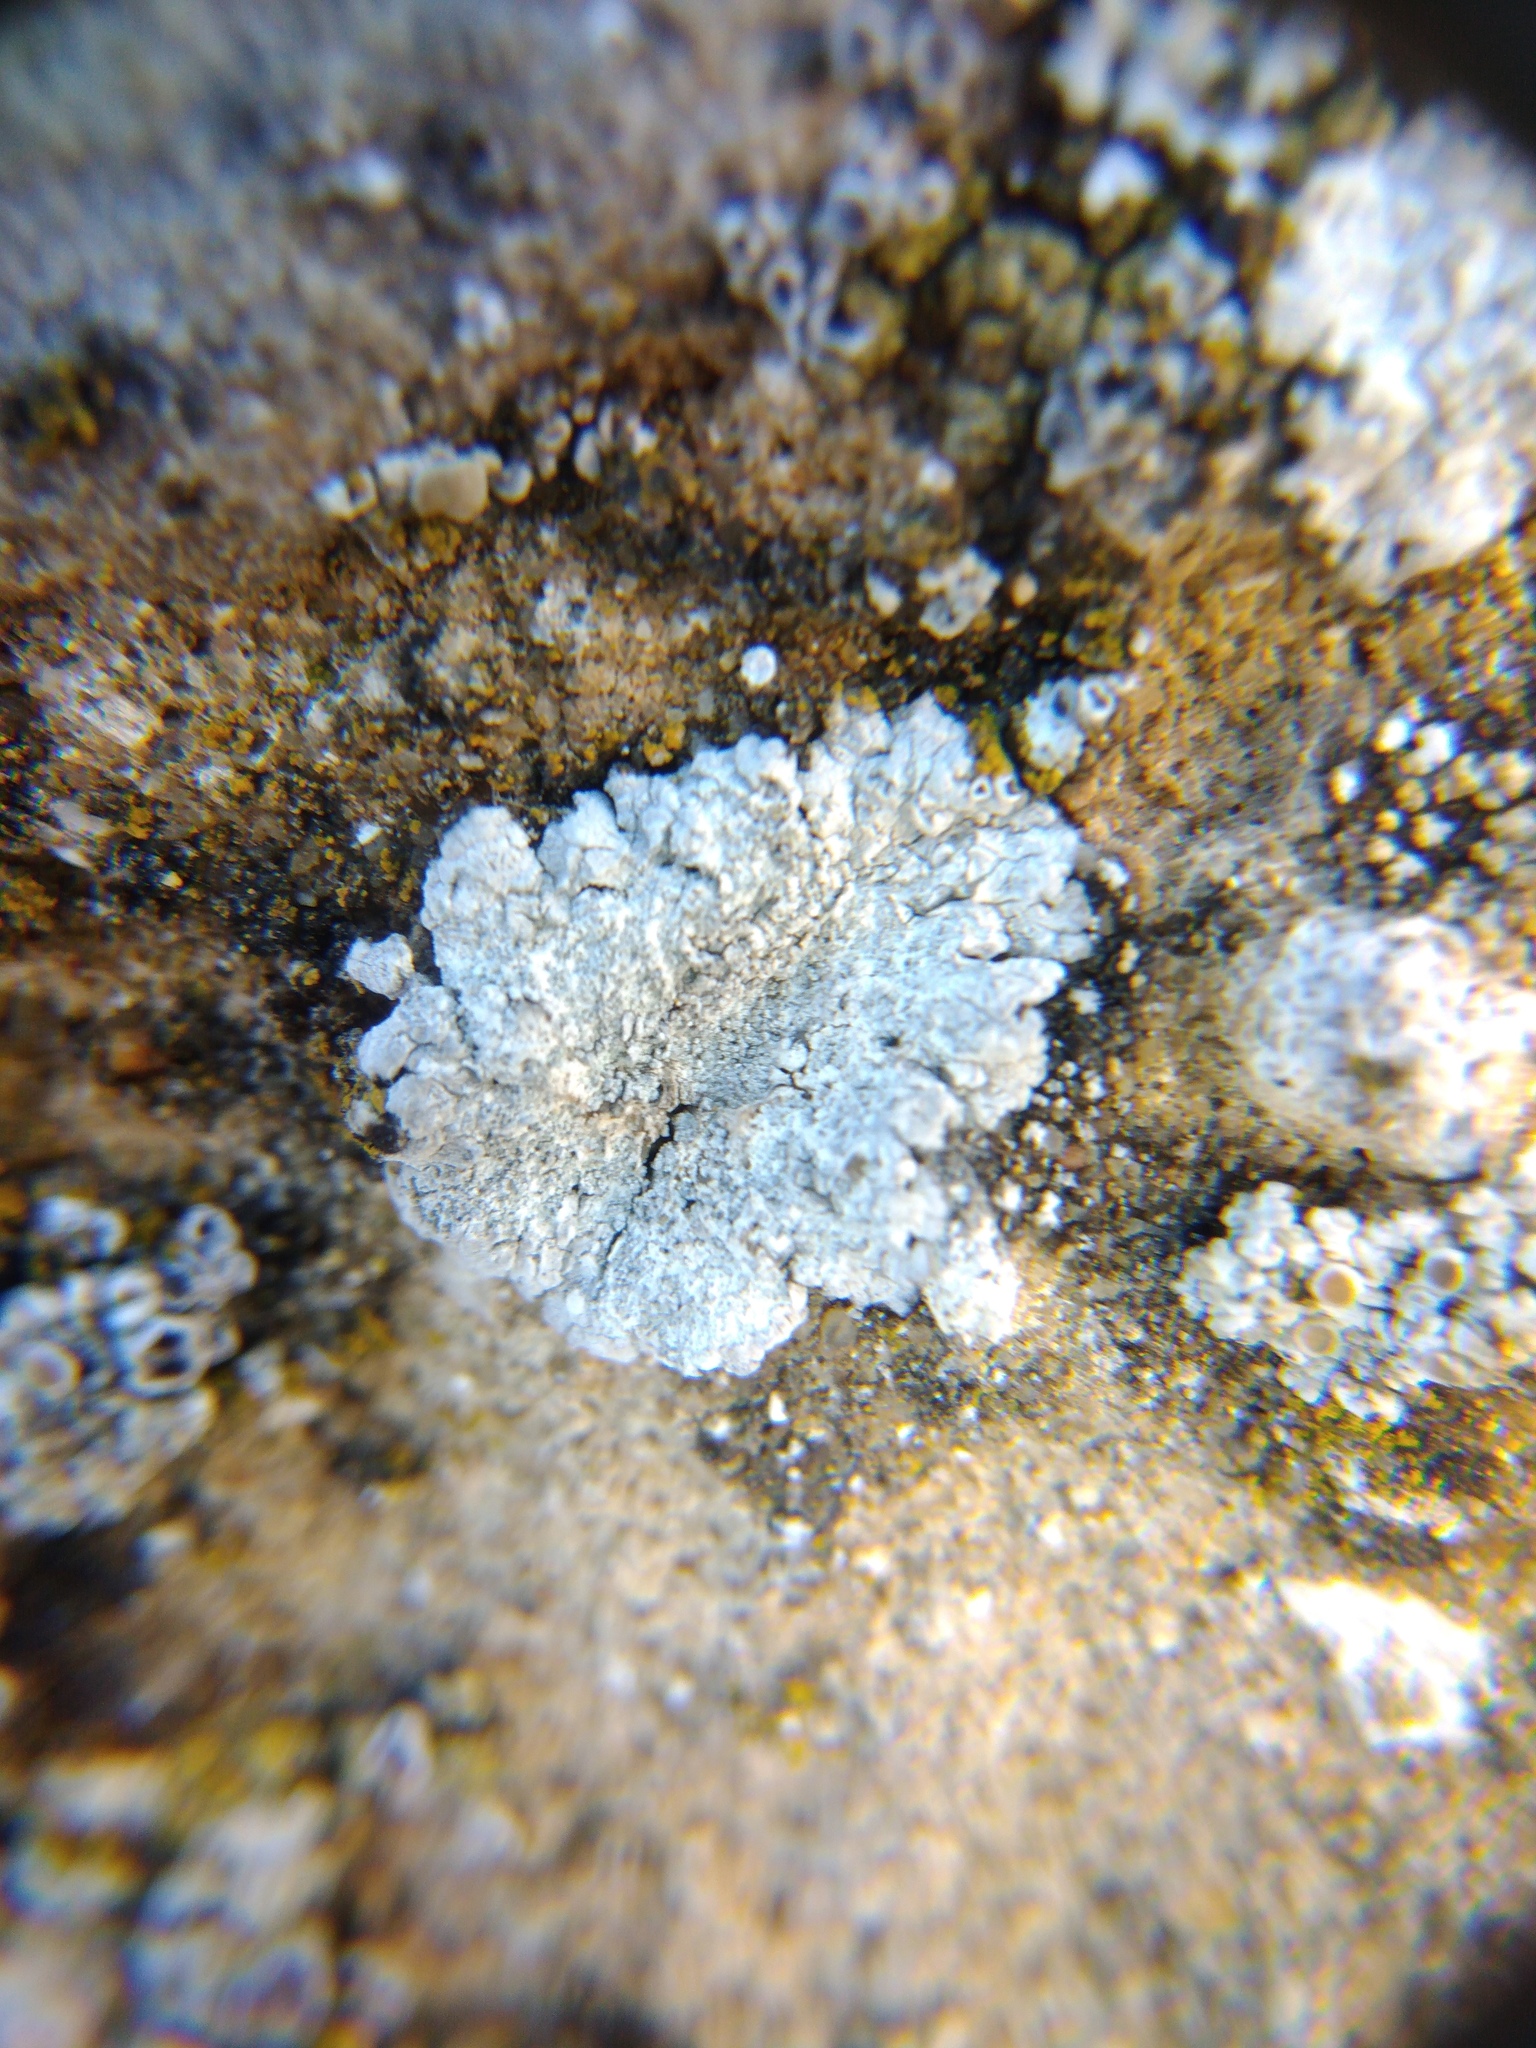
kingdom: Fungi
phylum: Ascomycota
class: Lecanoromycetes
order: Teloschistales
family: Teloschistaceae
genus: Kuettlingeria
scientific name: Kuettlingeria teicholyta
